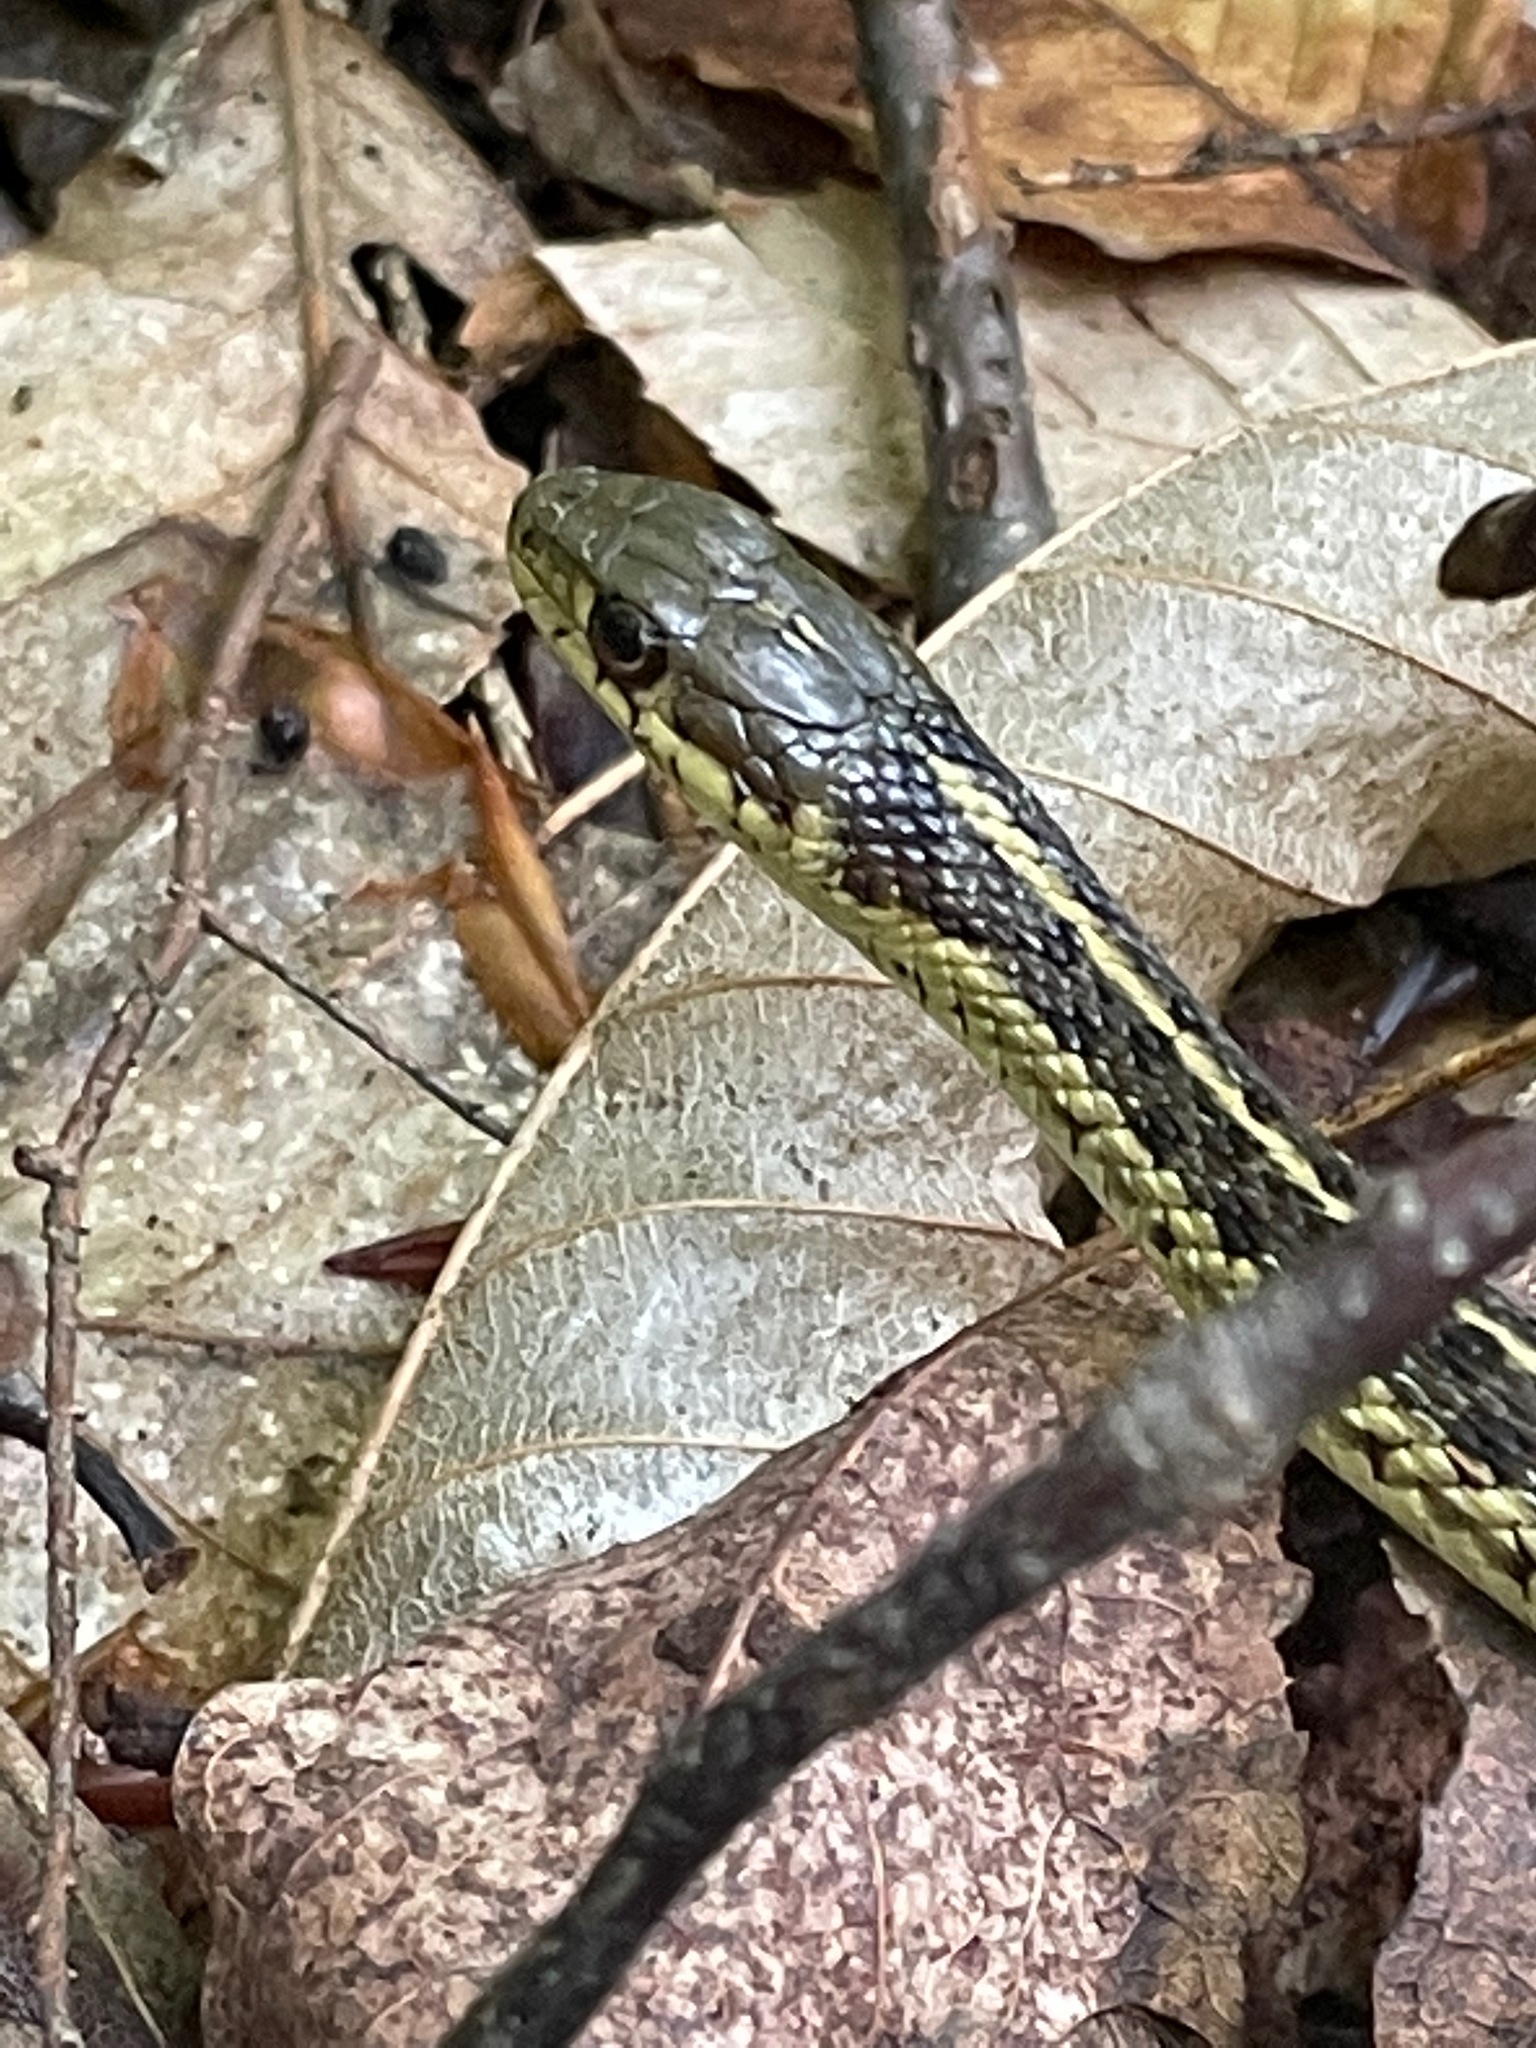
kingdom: Animalia
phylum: Chordata
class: Squamata
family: Colubridae
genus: Thamnophis
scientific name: Thamnophis sirtalis
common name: Common garter snake
